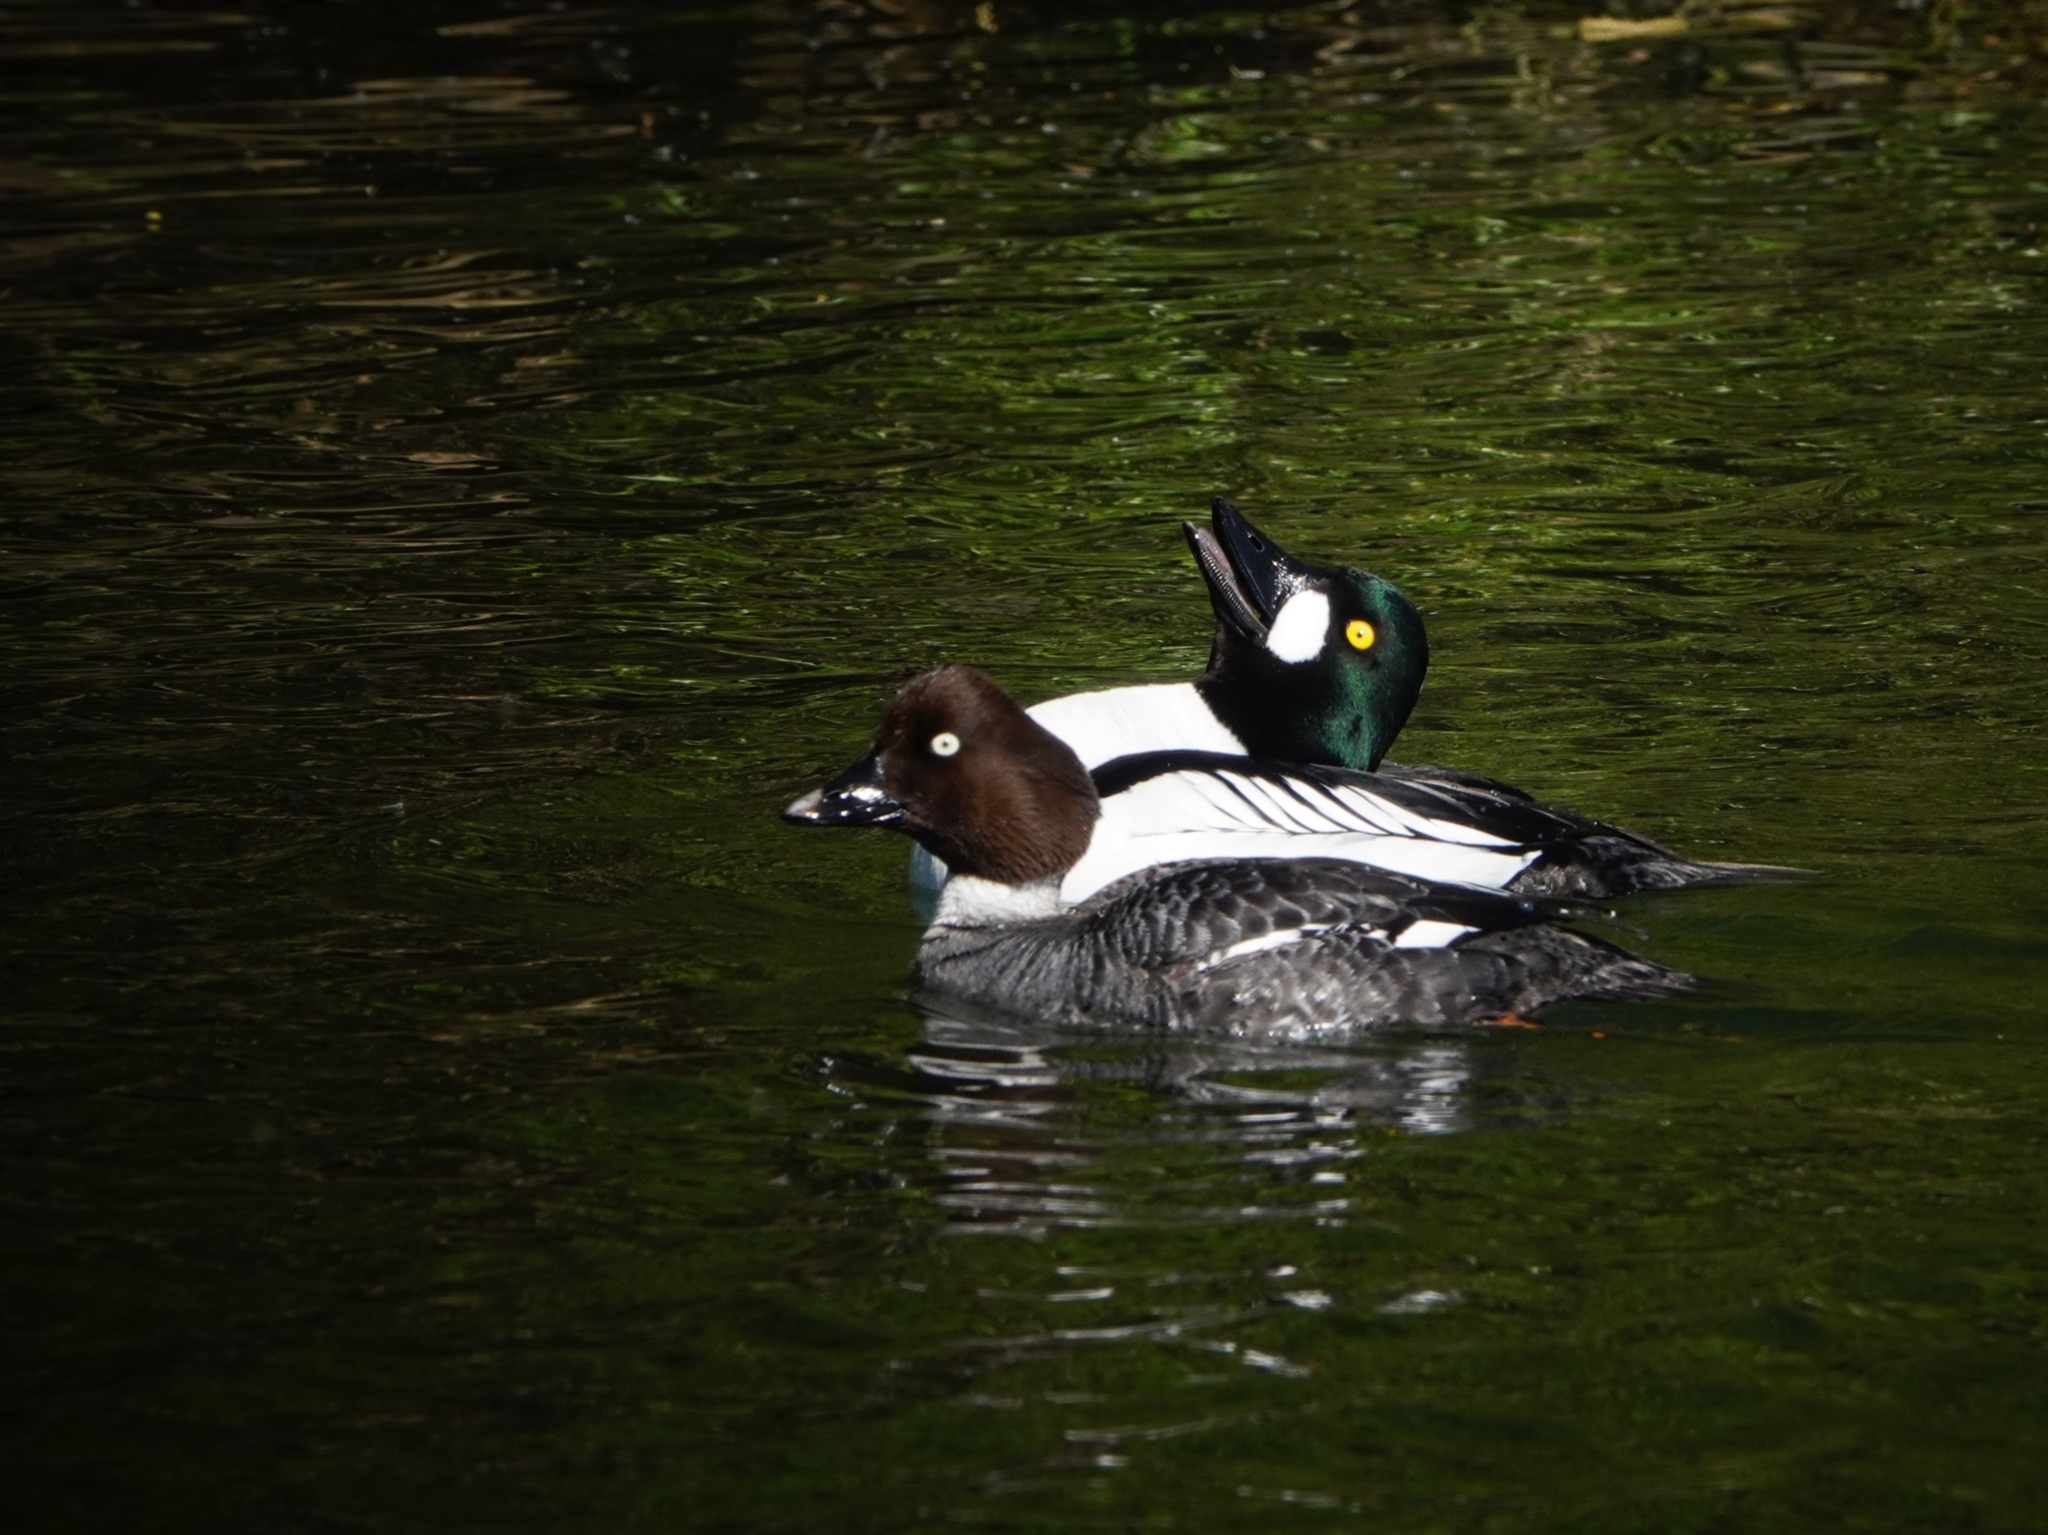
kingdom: Animalia
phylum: Chordata
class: Aves
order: Anseriformes
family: Anatidae
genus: Bucephala
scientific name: Bucephala clangula
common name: Common goldeneye
